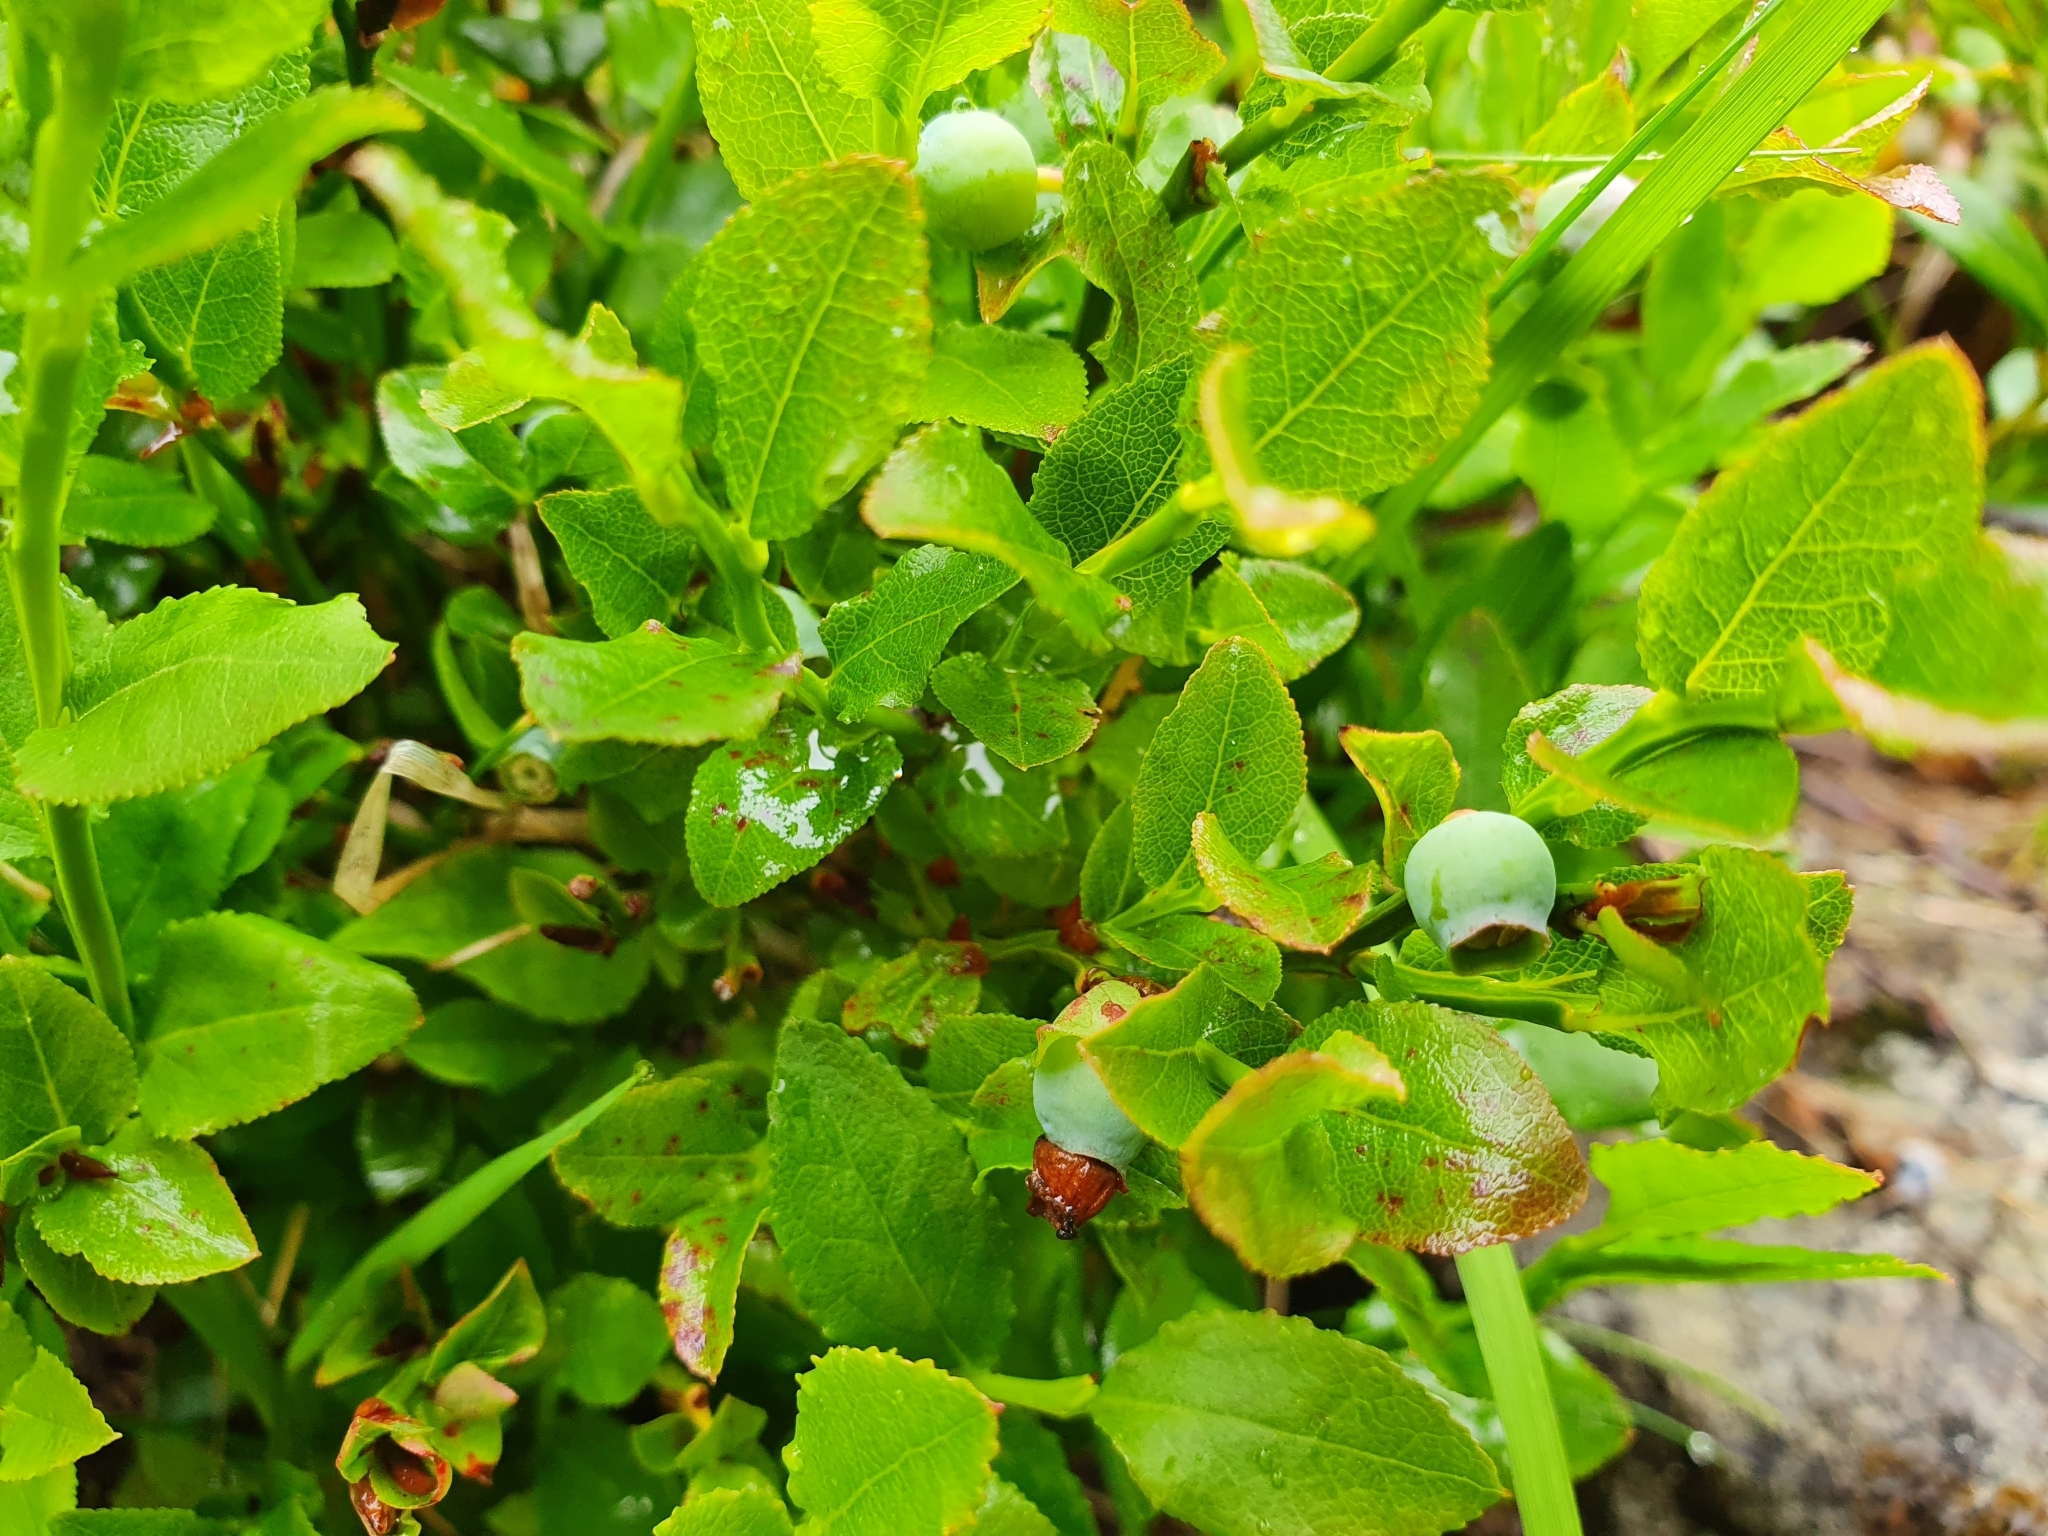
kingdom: Plantae
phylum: Tracheophyta
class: Magnoliopsida
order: Ericales
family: Ericaceae
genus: Vaccinium
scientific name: Vaccinium myrtillus
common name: Bilberry
